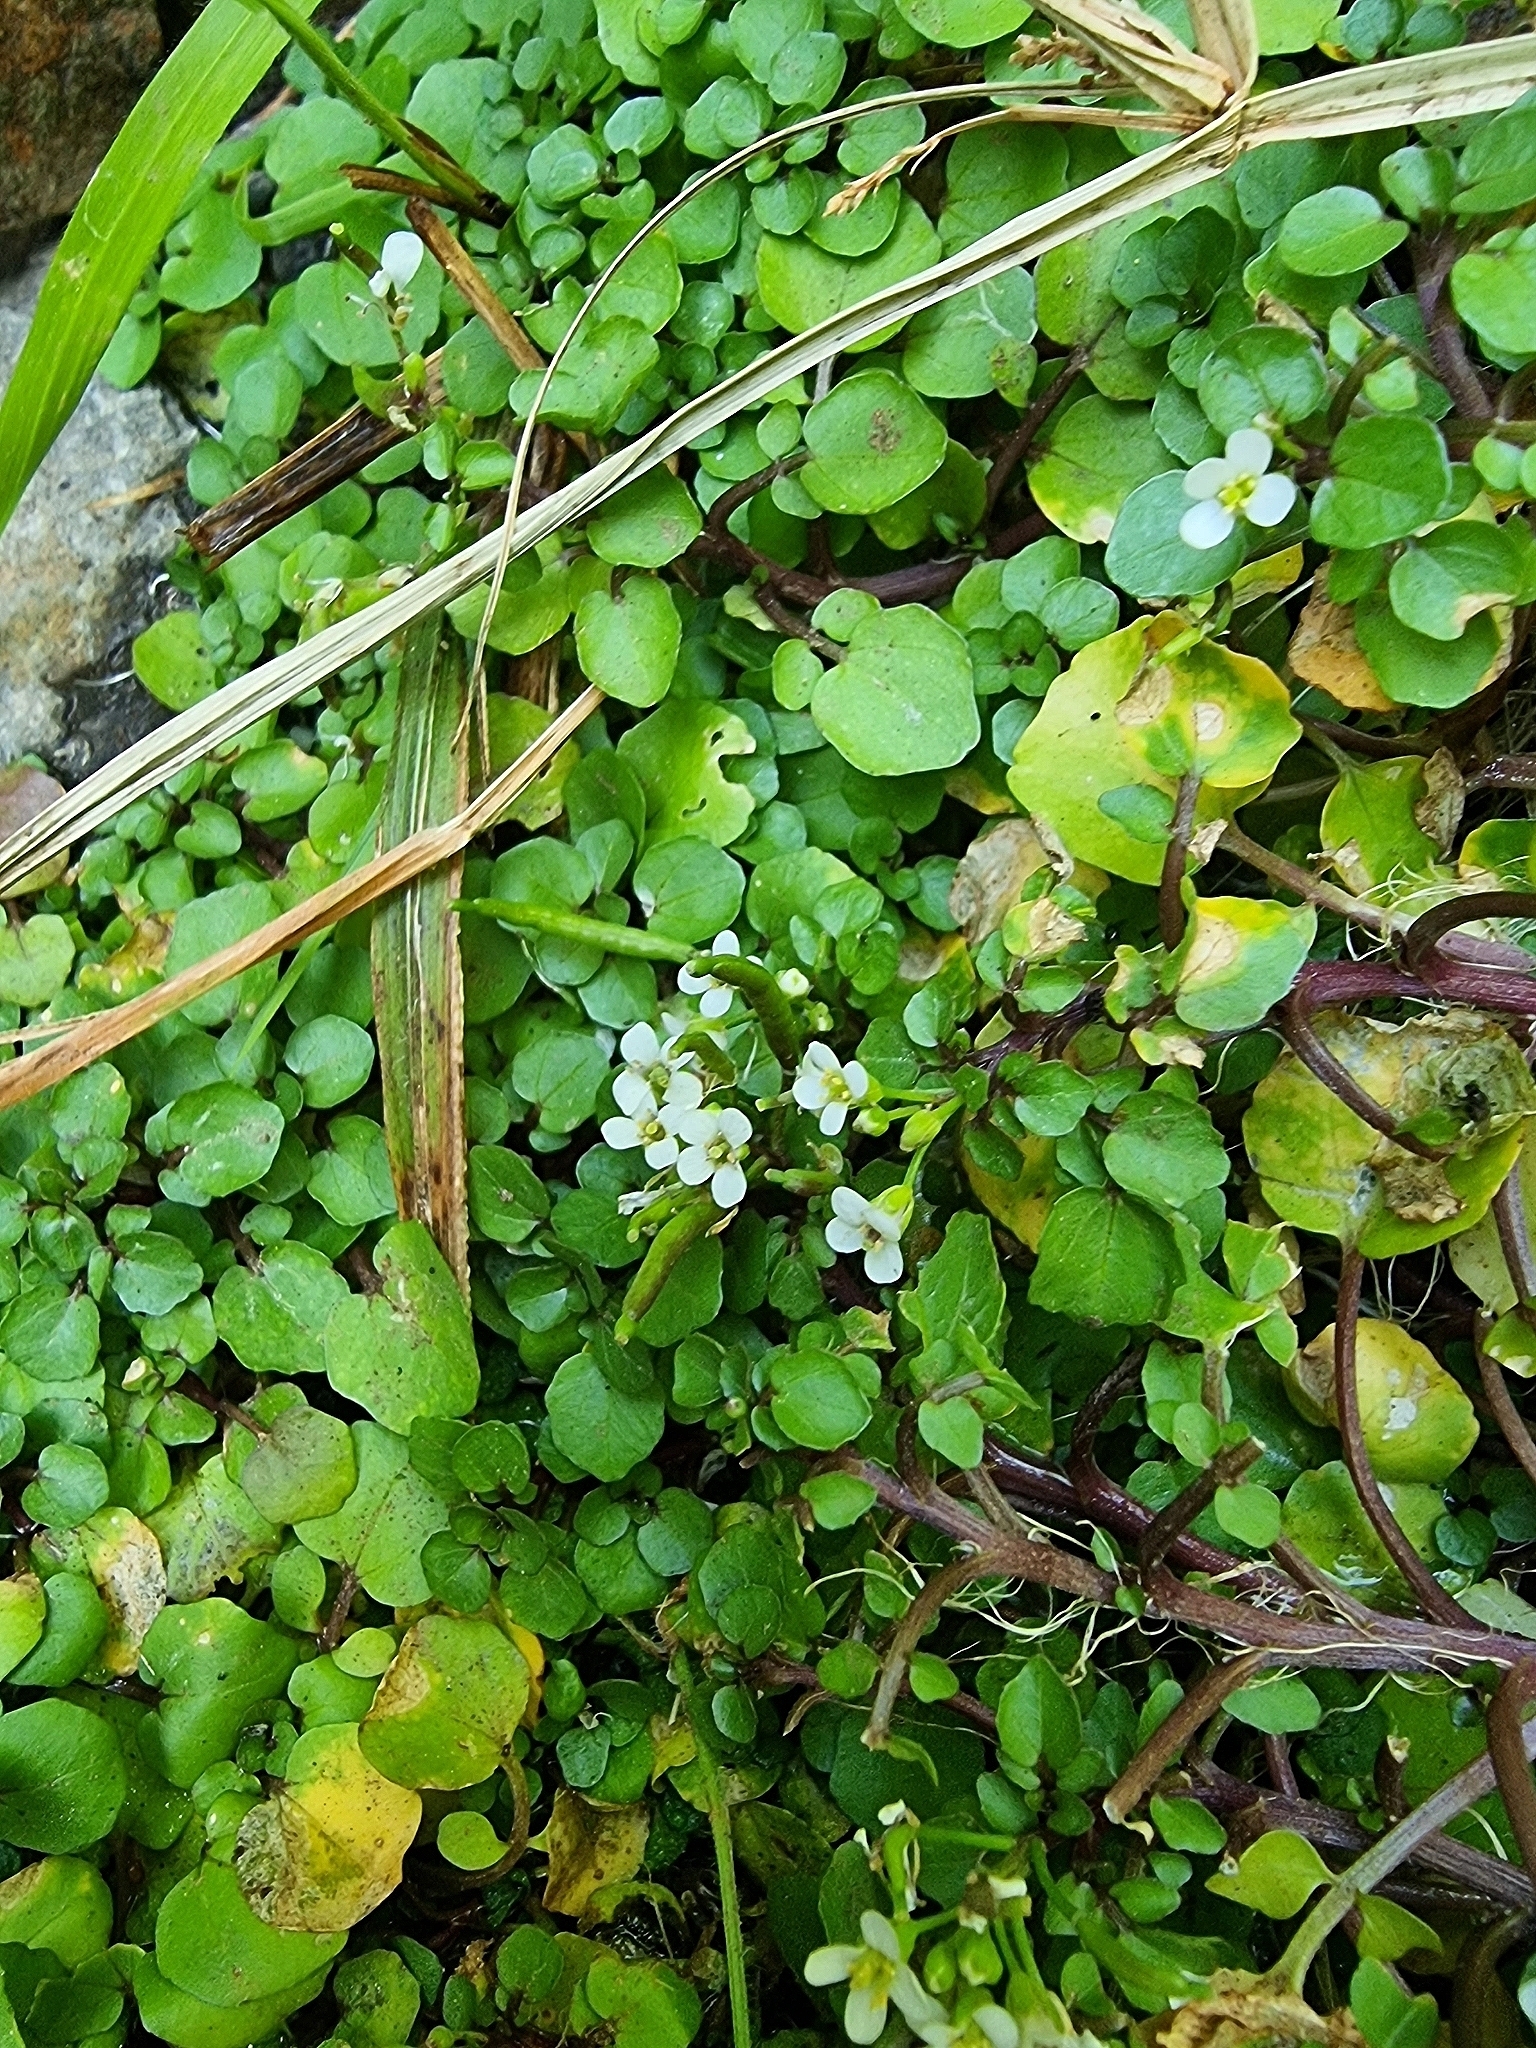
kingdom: Plantae
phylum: Tracheophyta
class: Magnoliopsida
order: Brassicales
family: Brassicaceae
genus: Nasturtium
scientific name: Nasturtium sterile
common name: Yellowcress
